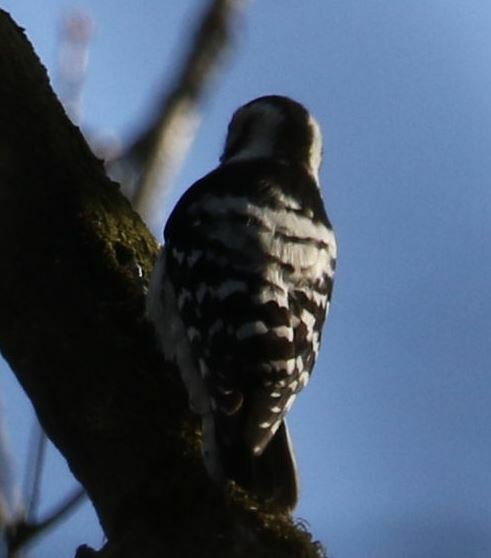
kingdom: Animalia
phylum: Chordata
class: Aves
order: Piciformes
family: Picidae
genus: Dryobates
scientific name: Dryobates minor
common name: Lesser spotted woodpecker
